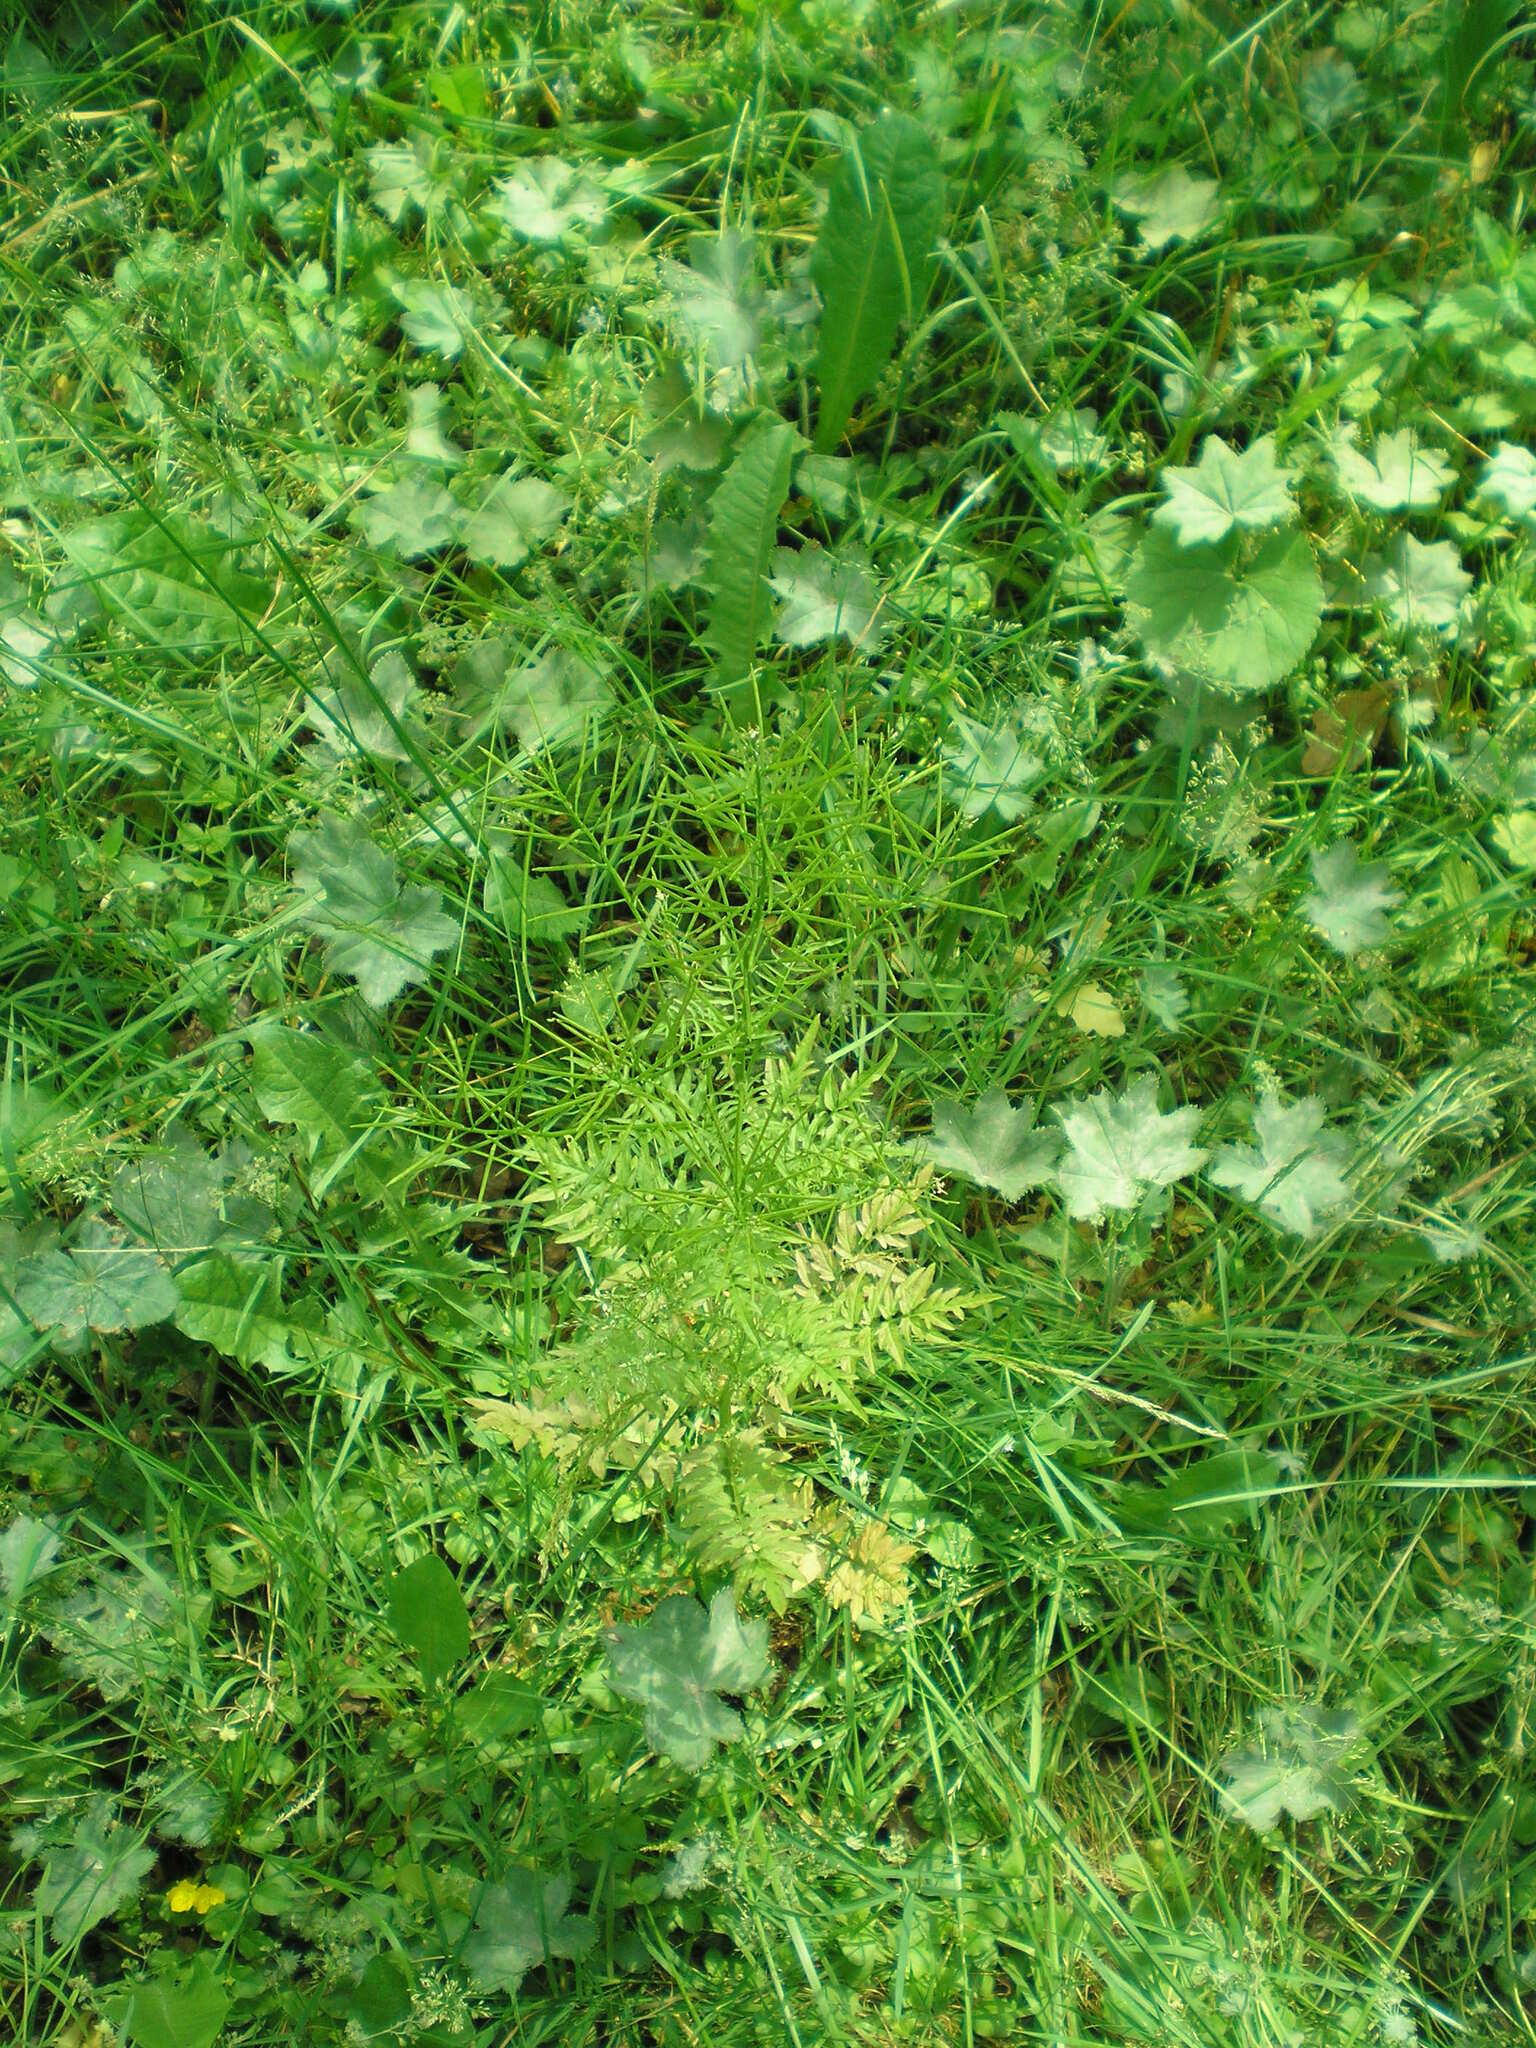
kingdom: Plantae
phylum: Tracheophyta
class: Magnoliopsida
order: Brassicales
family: Brassicaceae
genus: Cardamine
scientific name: Cardamine impatiens
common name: Narrow-leaved bitter-cress
